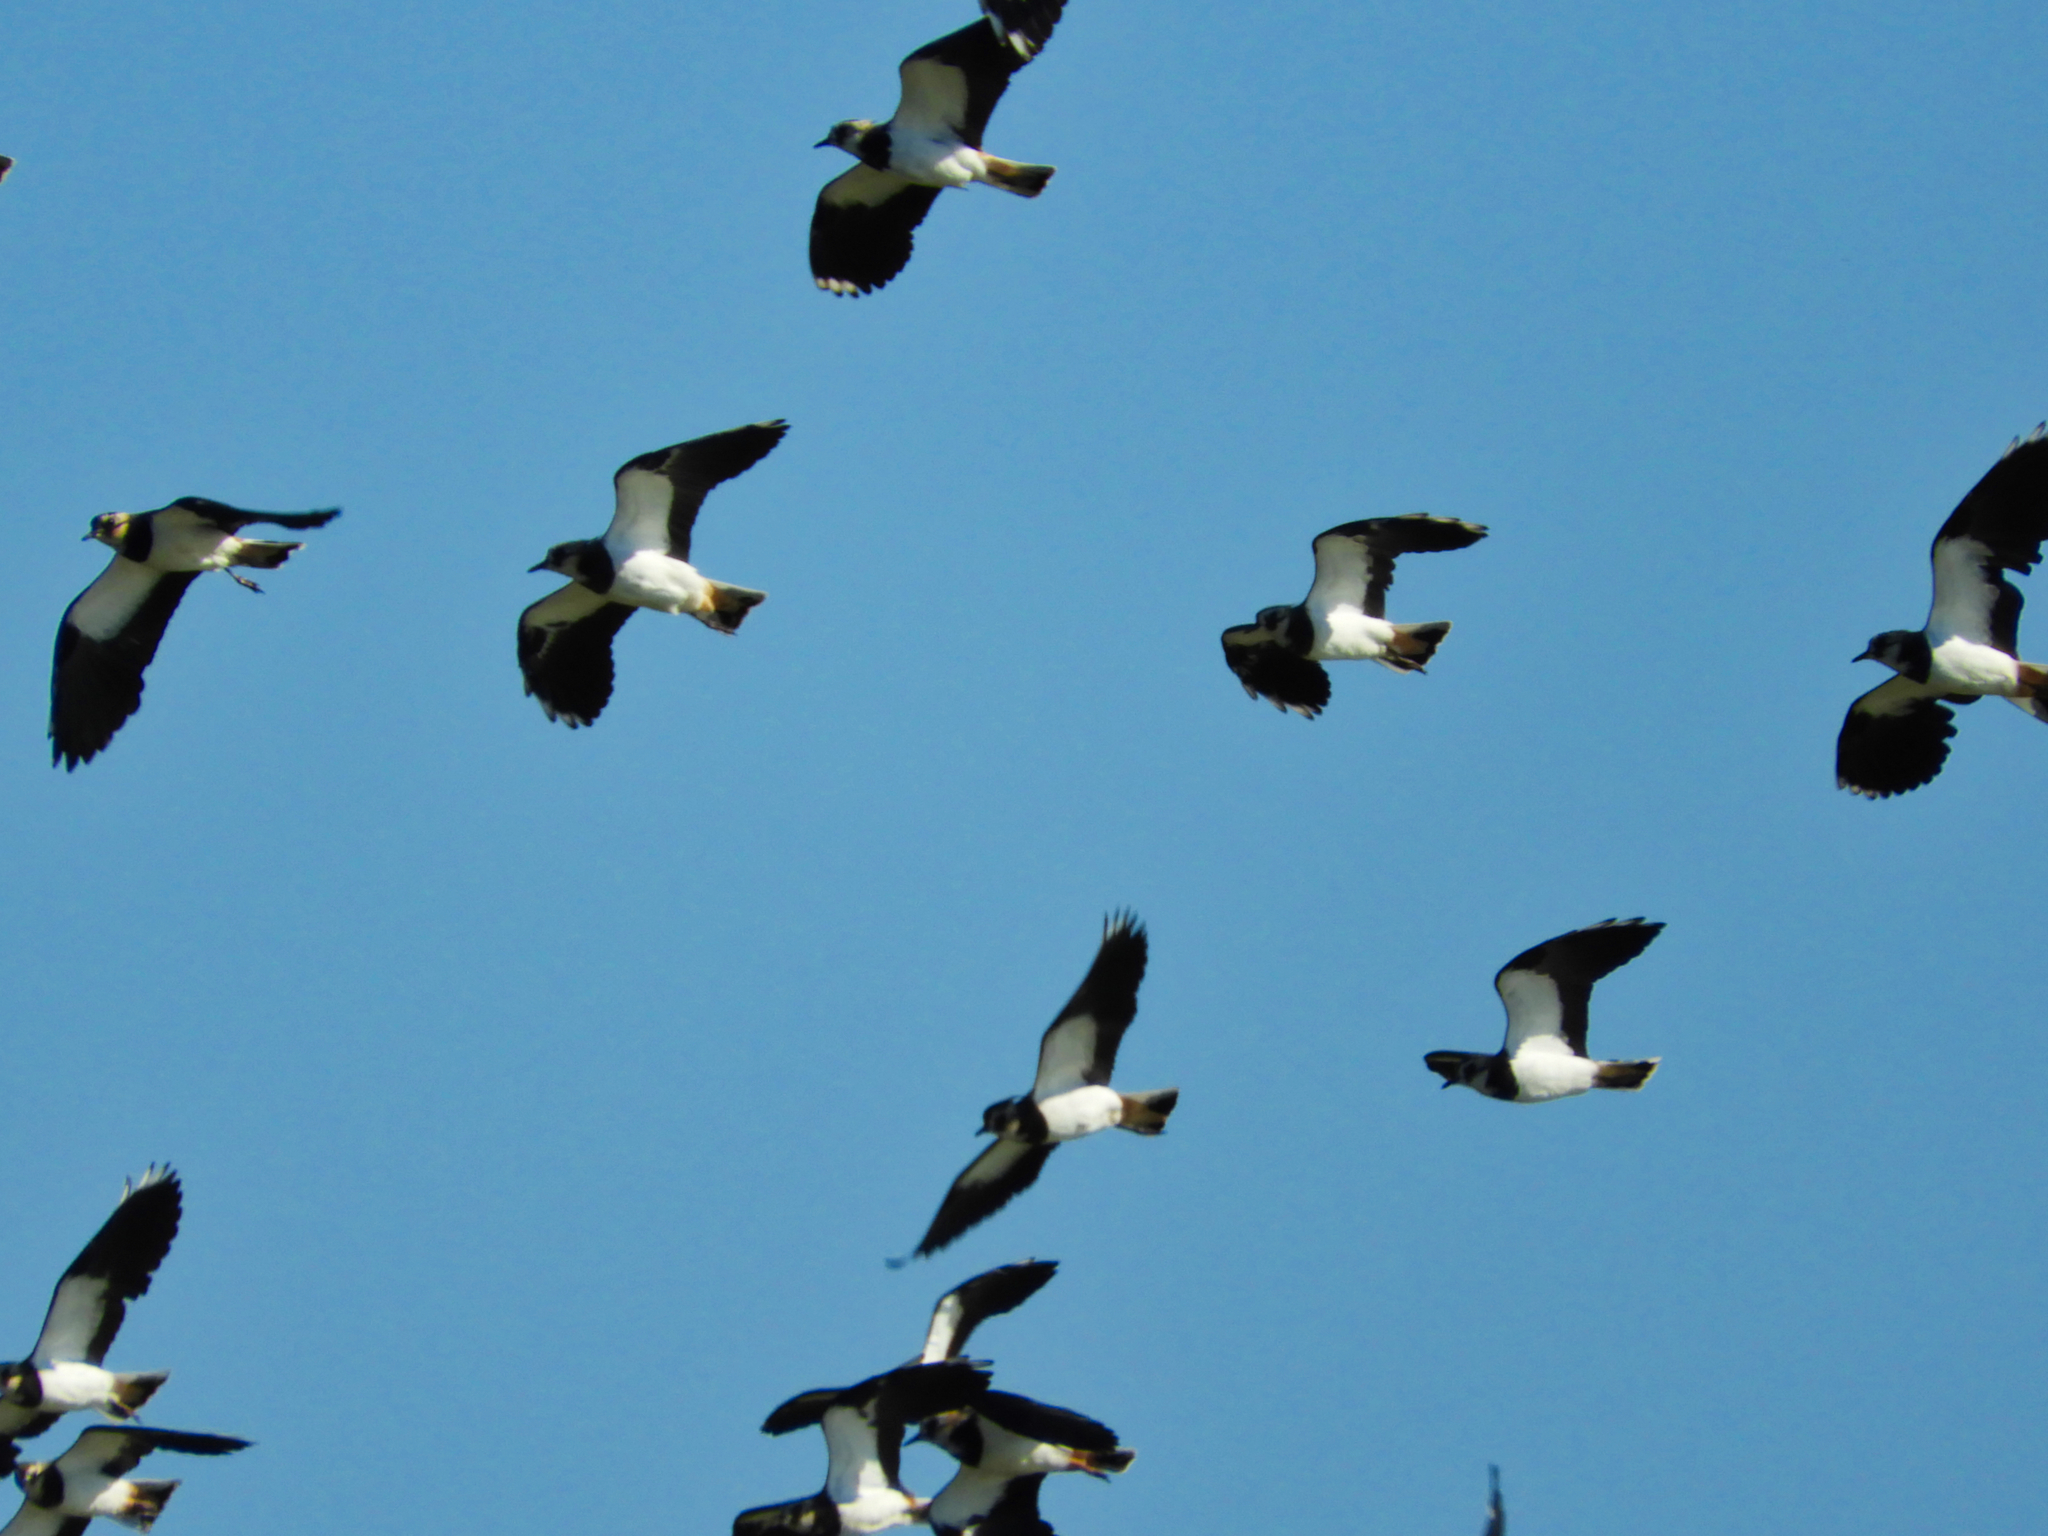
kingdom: Animalia
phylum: Chordata
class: Aves
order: Charadriiformes
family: Charadriidae
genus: Vanellus
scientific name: Vanellus vanellus
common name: Northern lapwing
